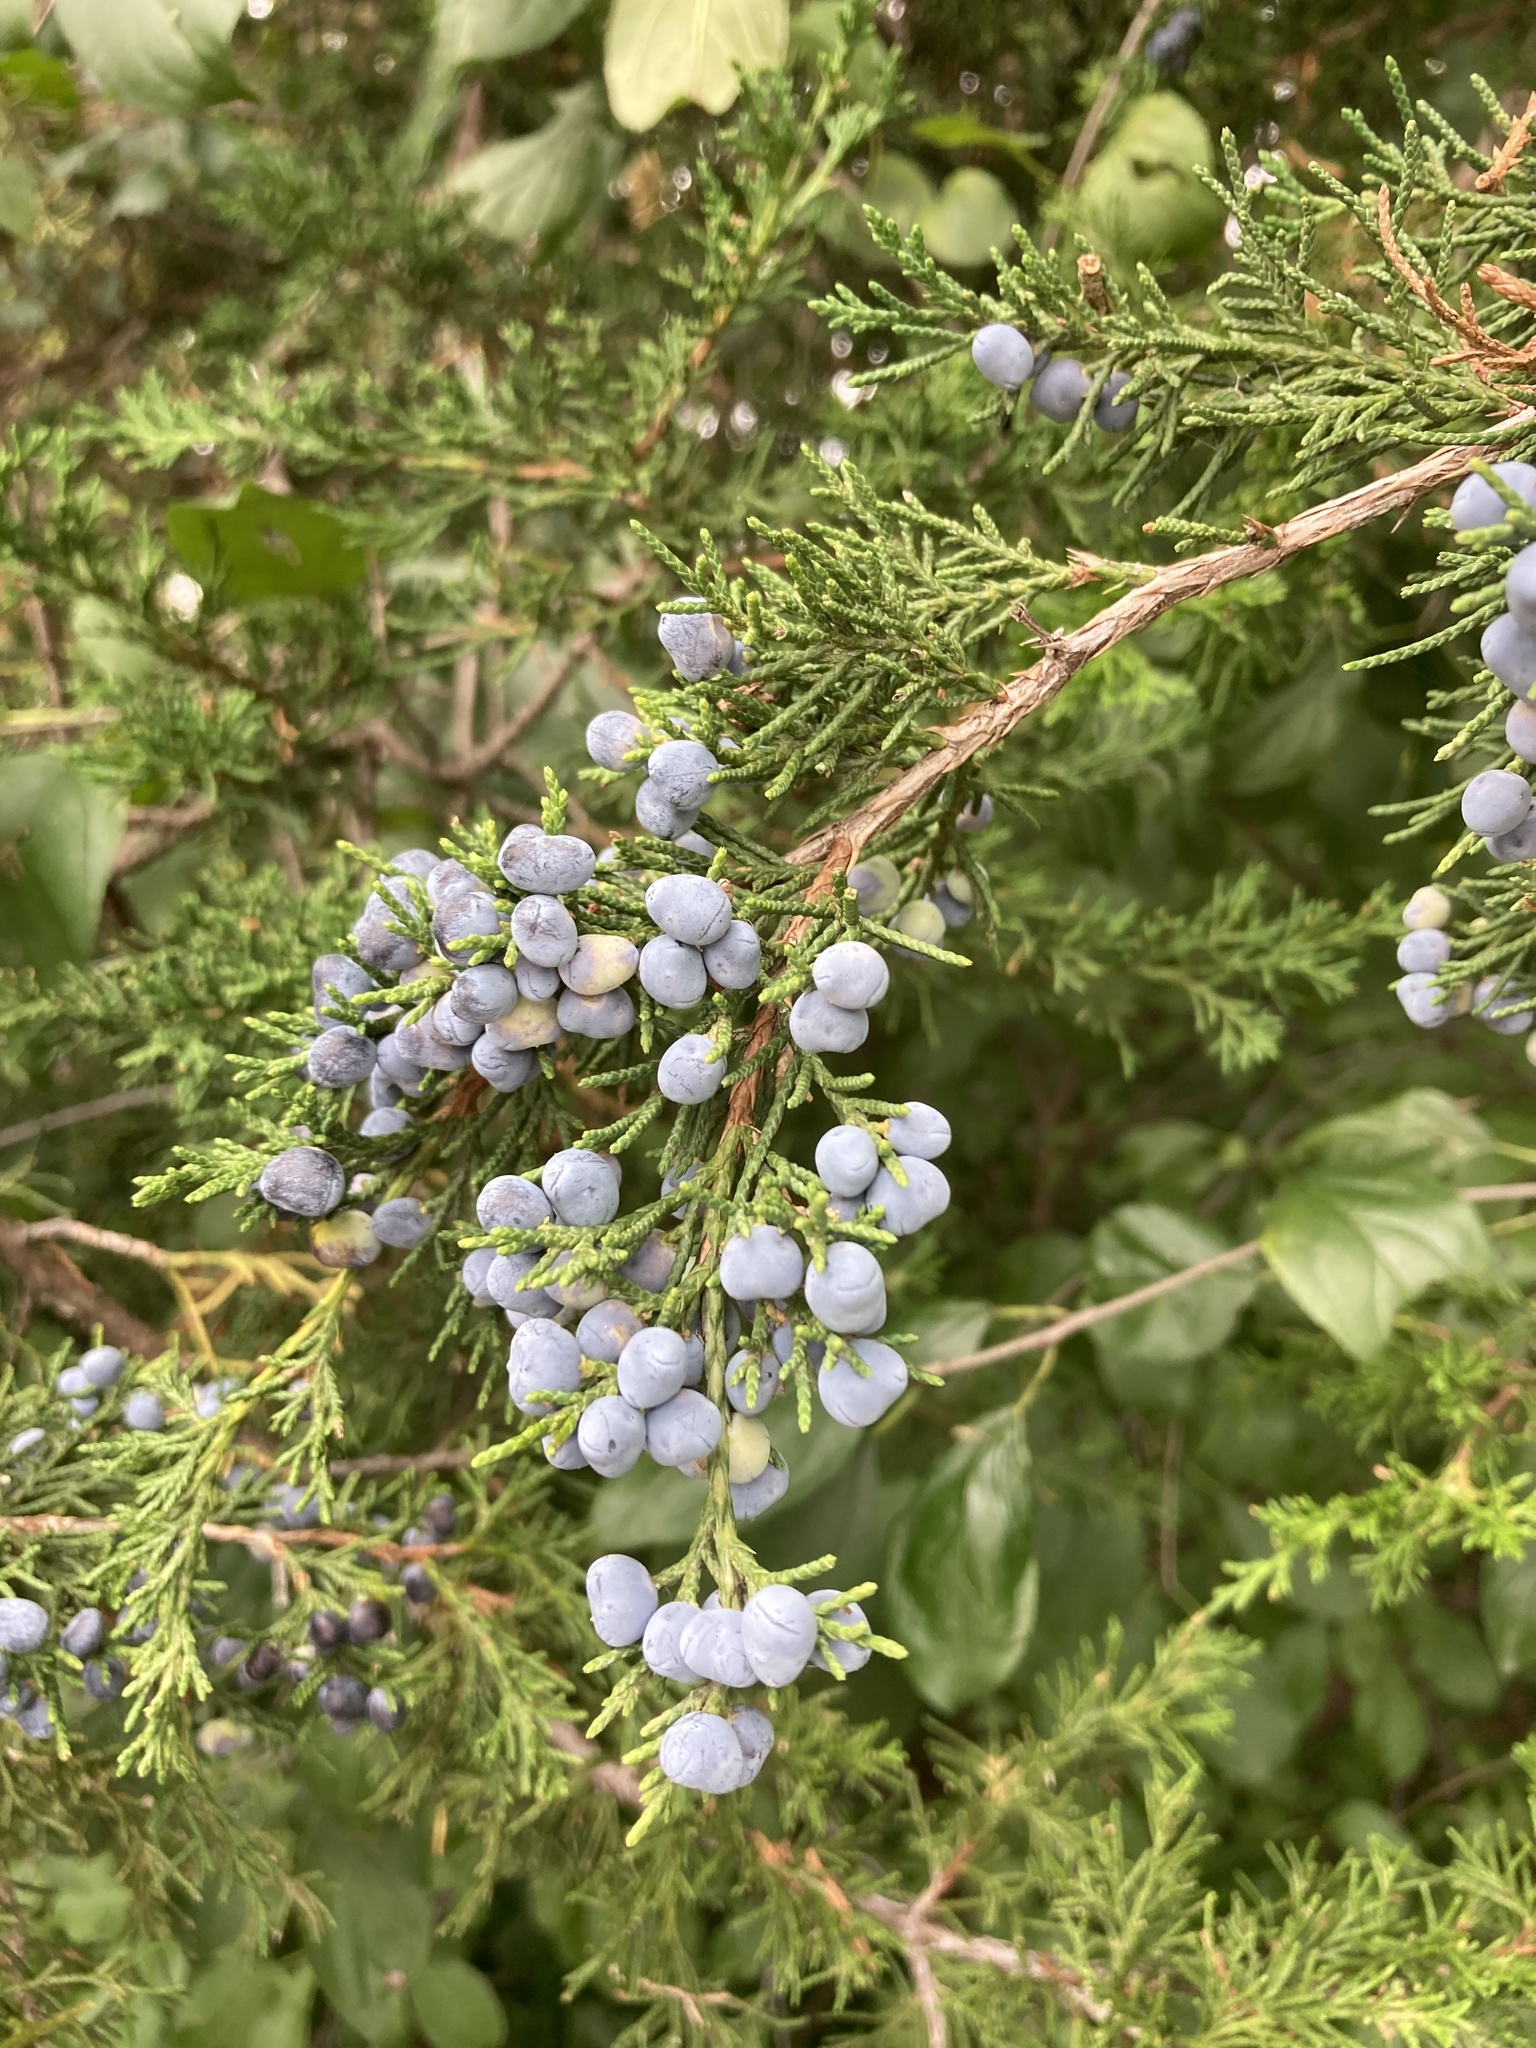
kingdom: Plantae
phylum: Tracheophyta
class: Pinopsida
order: Pinales
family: Cupressaceae
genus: Juniperus
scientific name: Juniperus virginiana
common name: Red juniper
